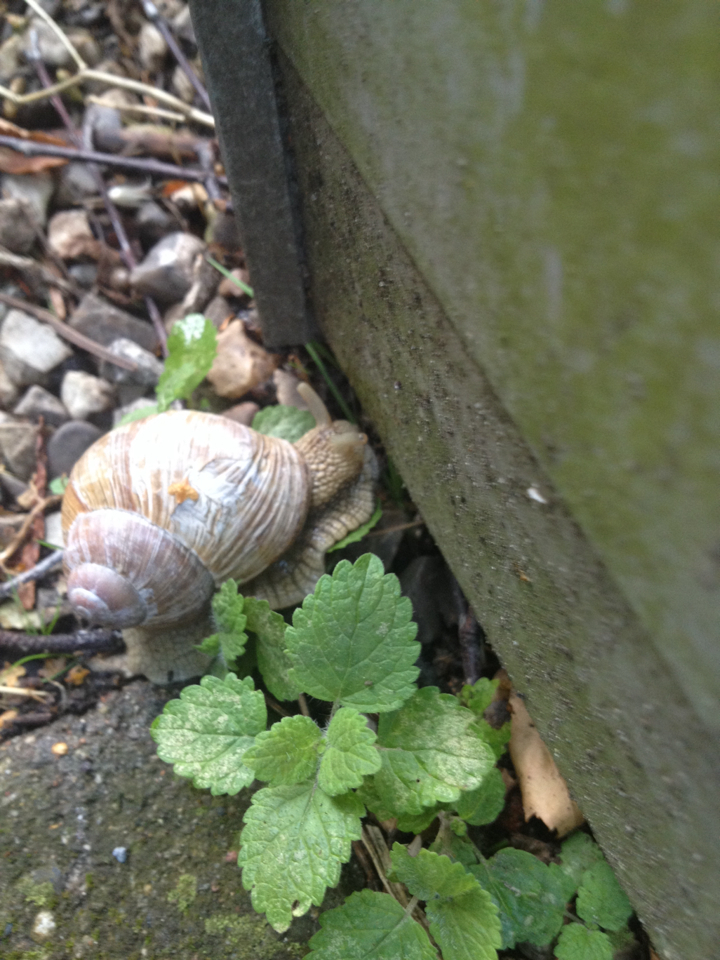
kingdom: Animalia
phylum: Mollusca
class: Gastropoda
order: Stylommatophora
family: Helicidae
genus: Helix
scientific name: Helix pomatia
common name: Roman snail
